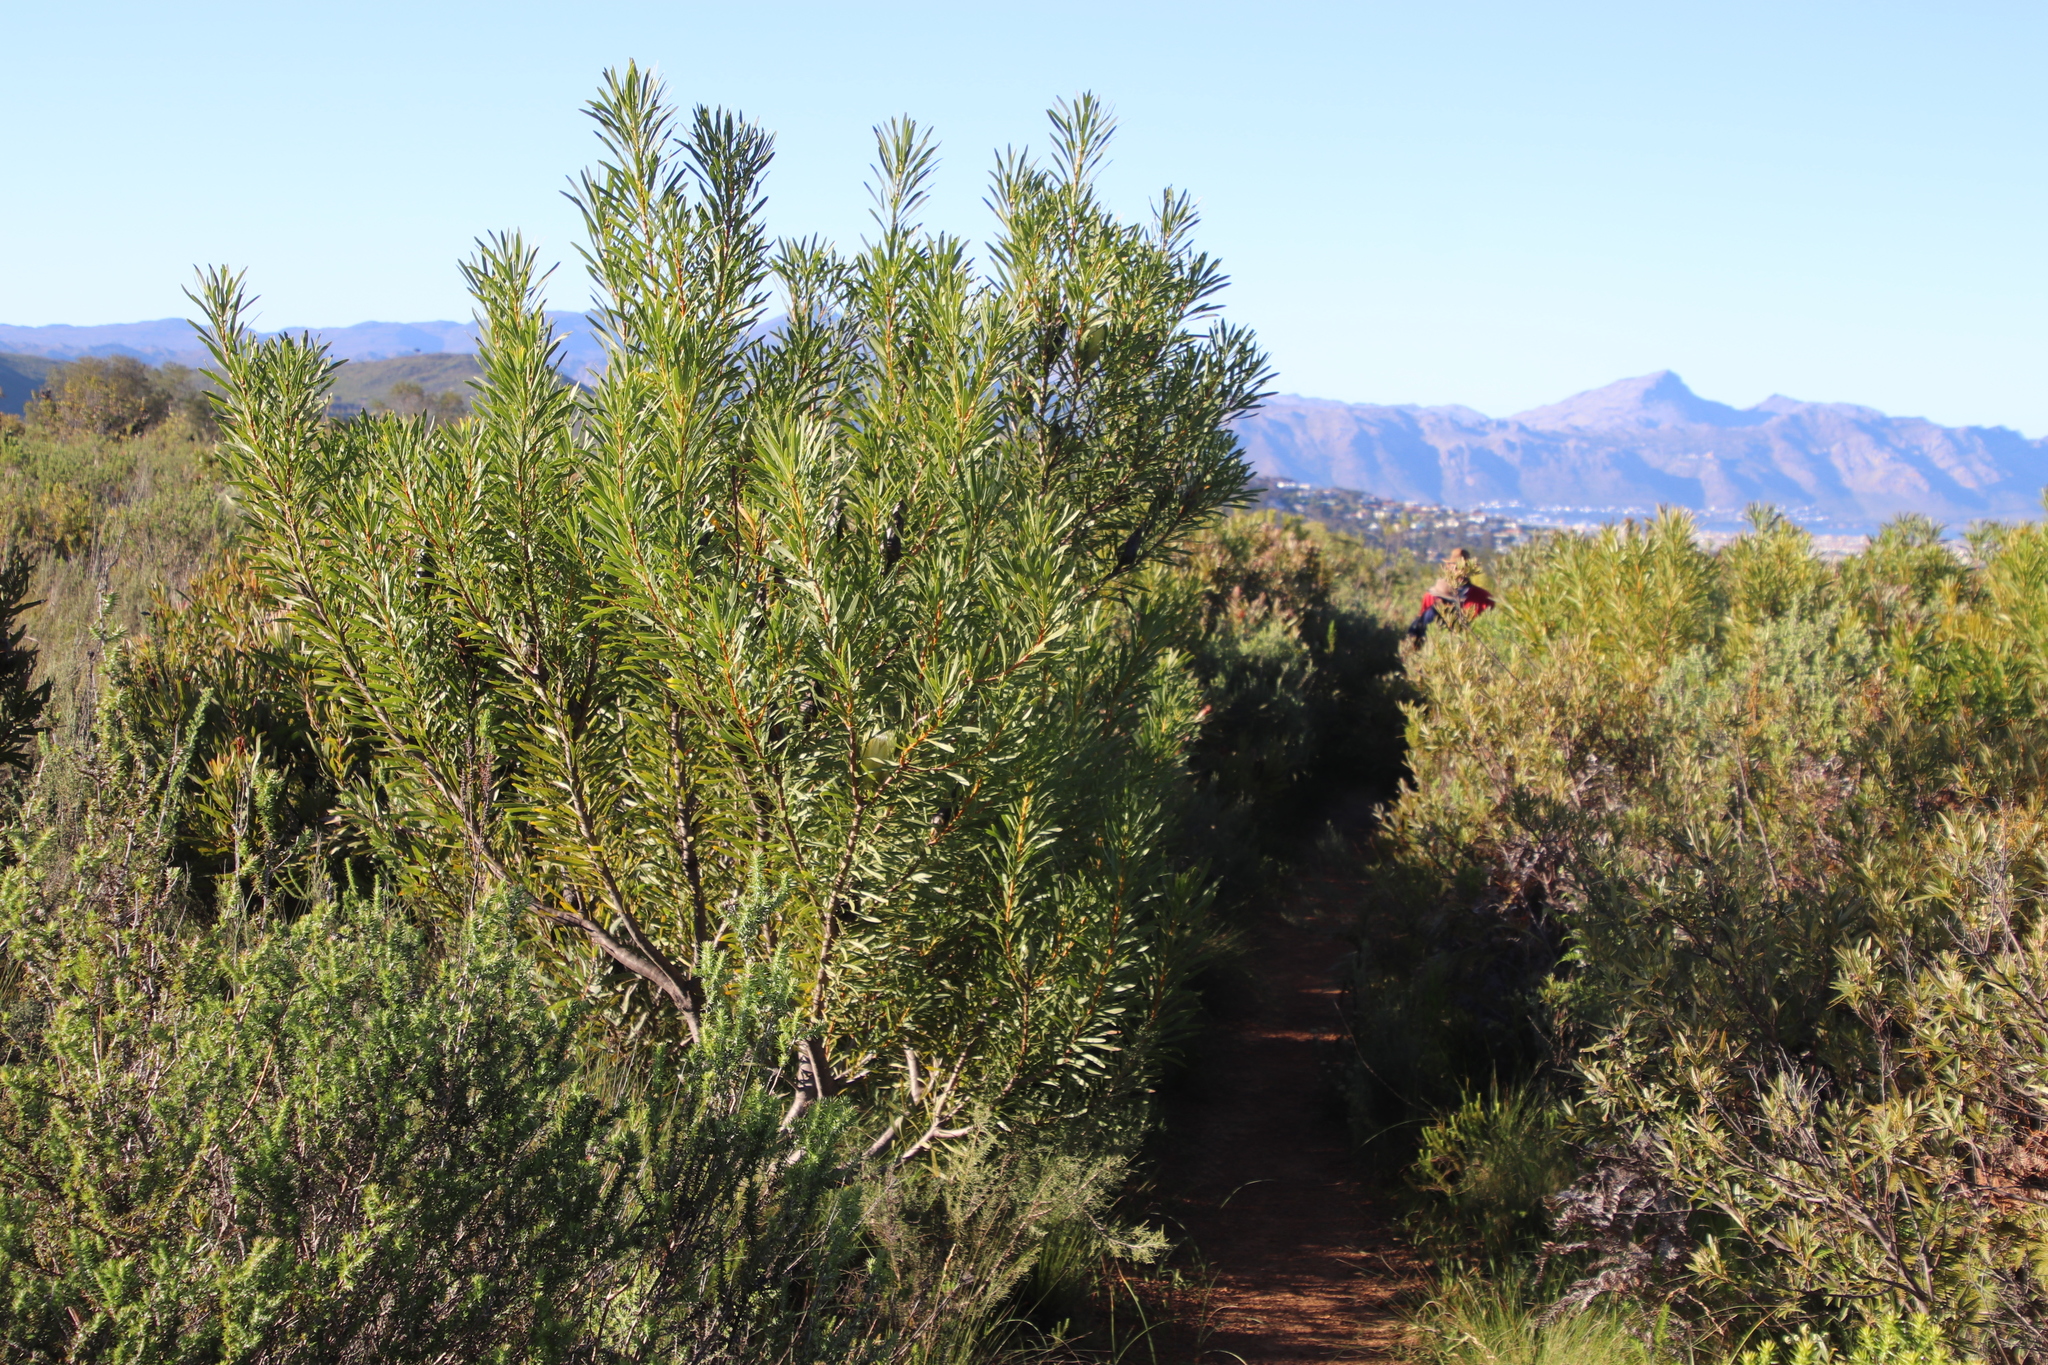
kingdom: Plantae
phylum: Tracheophyta
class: Magnoliopsida
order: Proteales
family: Proteaceae
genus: Protea
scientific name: Protea repens
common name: Sugarbush
